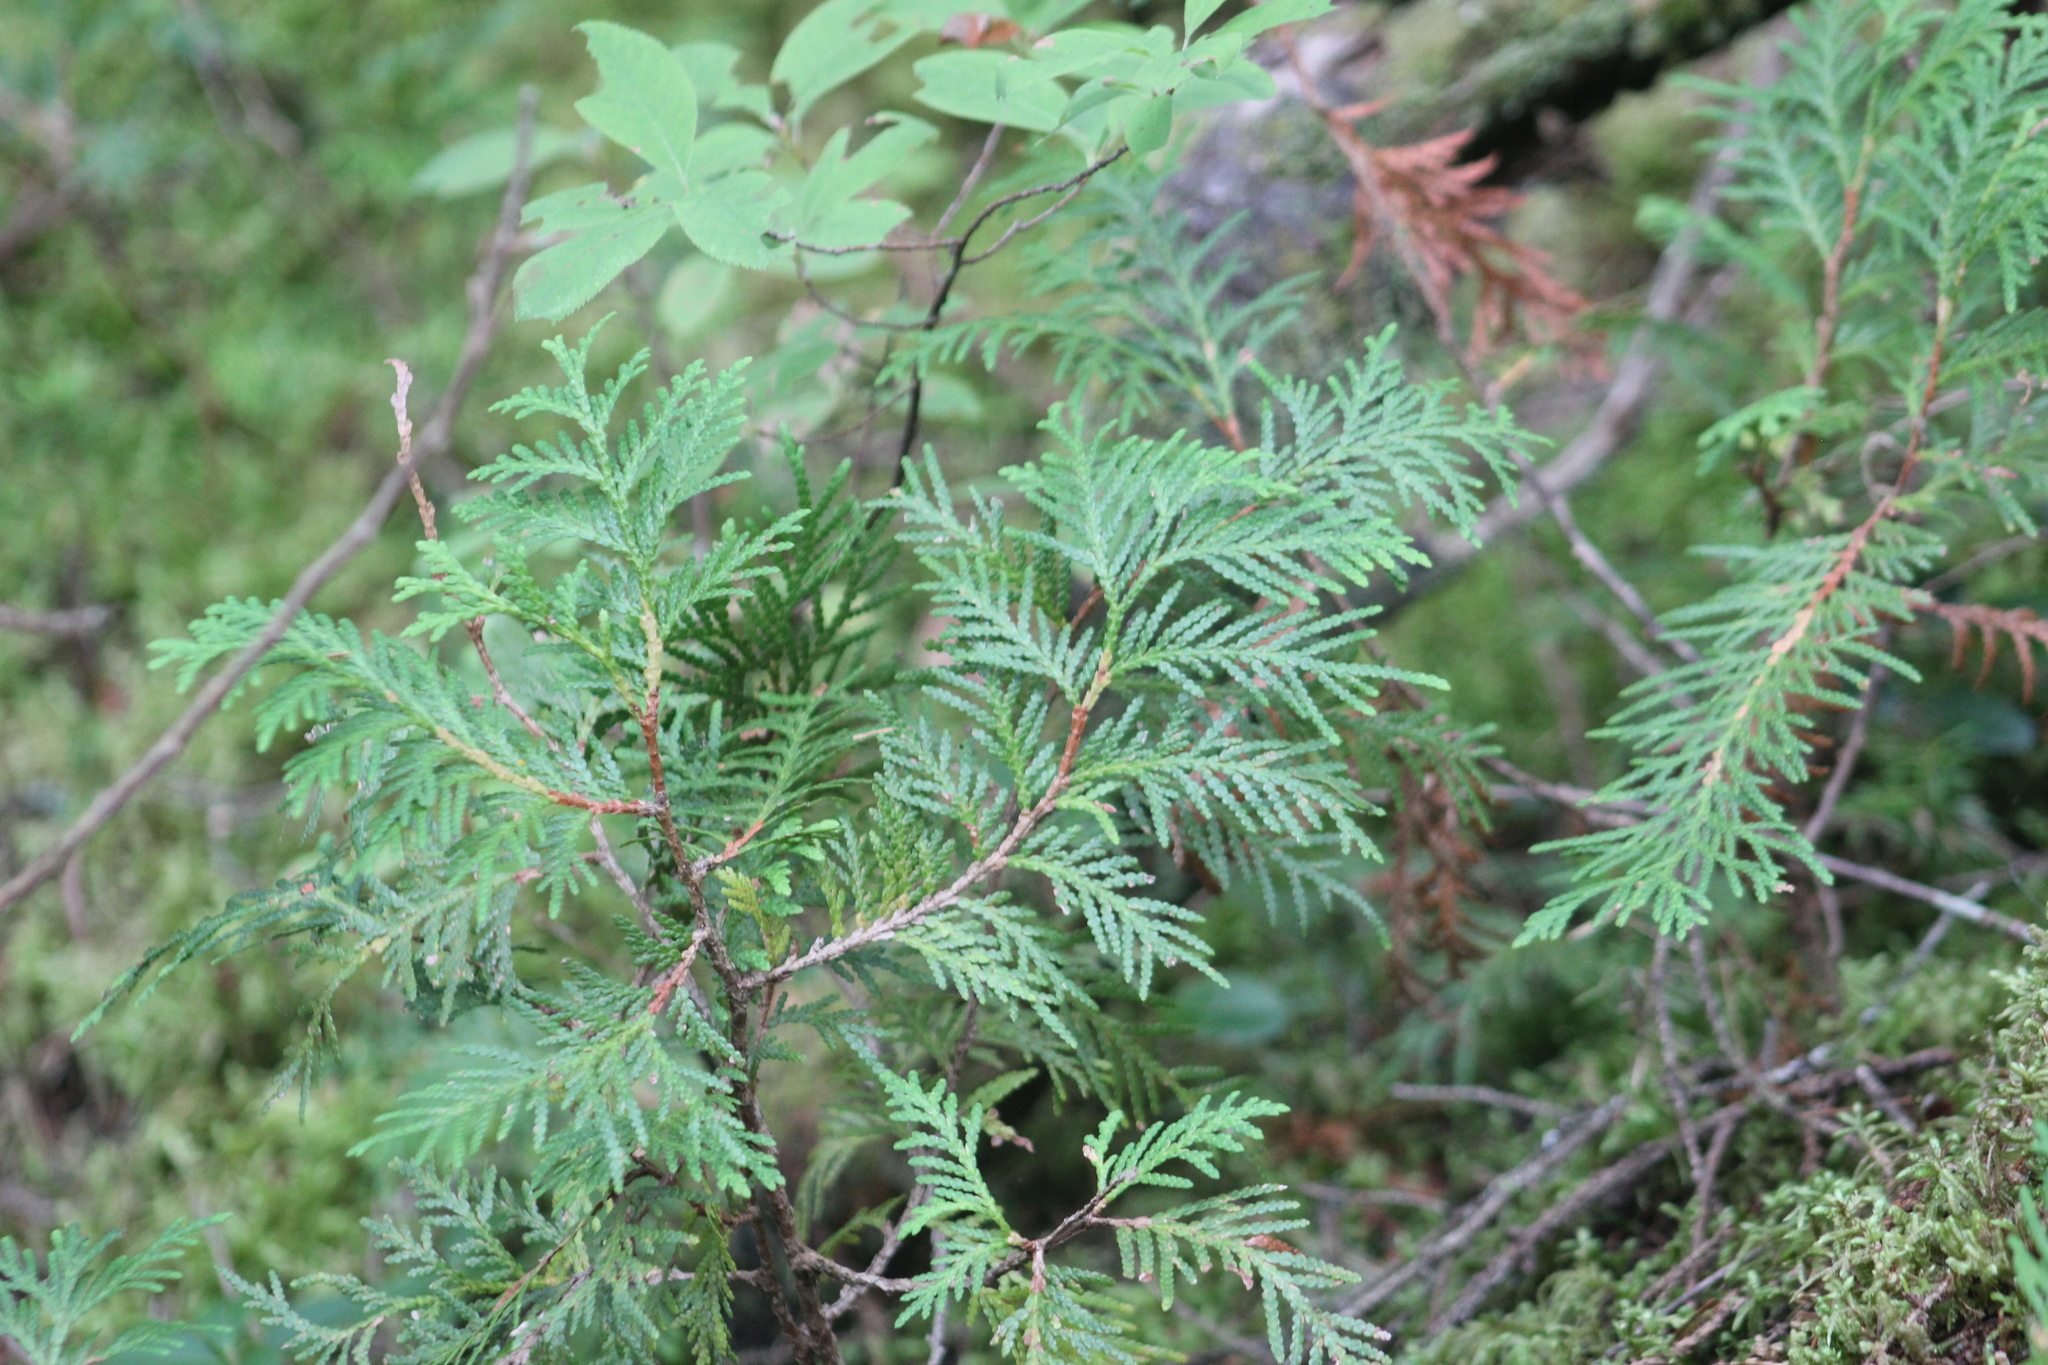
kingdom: Plantae
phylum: Tracheophyta
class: Pinopsida
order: Pinales
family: Cupressaceae
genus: Thuja
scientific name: Thuja occidentalis
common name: Northern white-cedar
